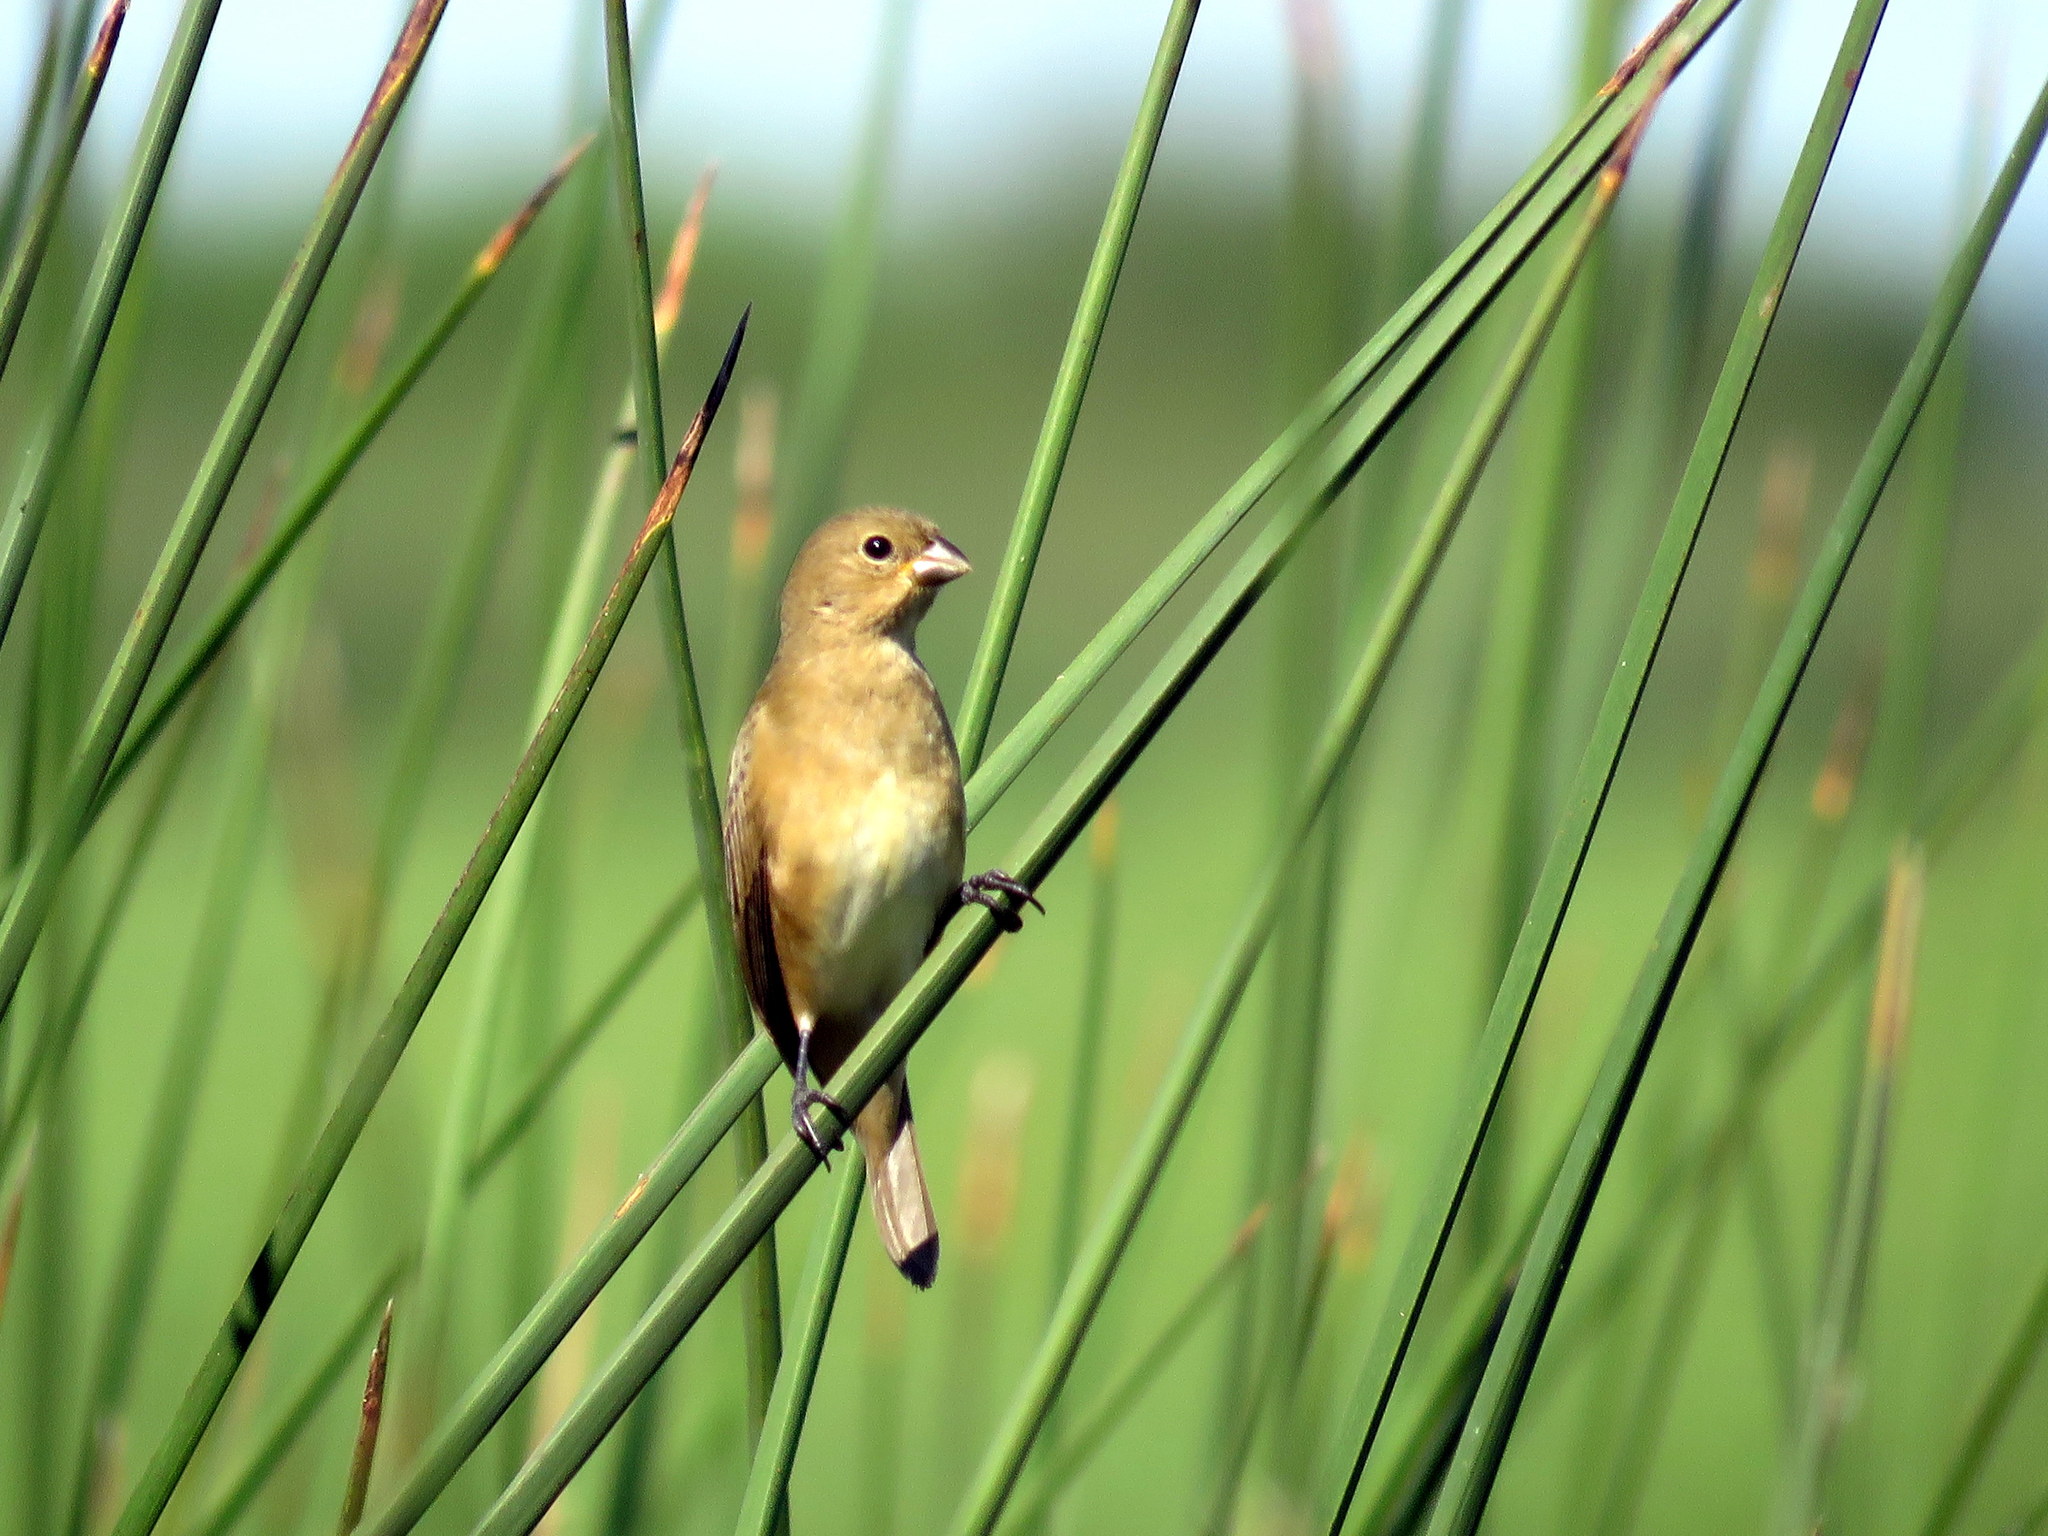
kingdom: Animalia
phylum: Chordata
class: Aves
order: Passeriformes
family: Thraupidae
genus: Sporophila
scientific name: Sporophila caerulescens
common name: Double-collared seedeater
